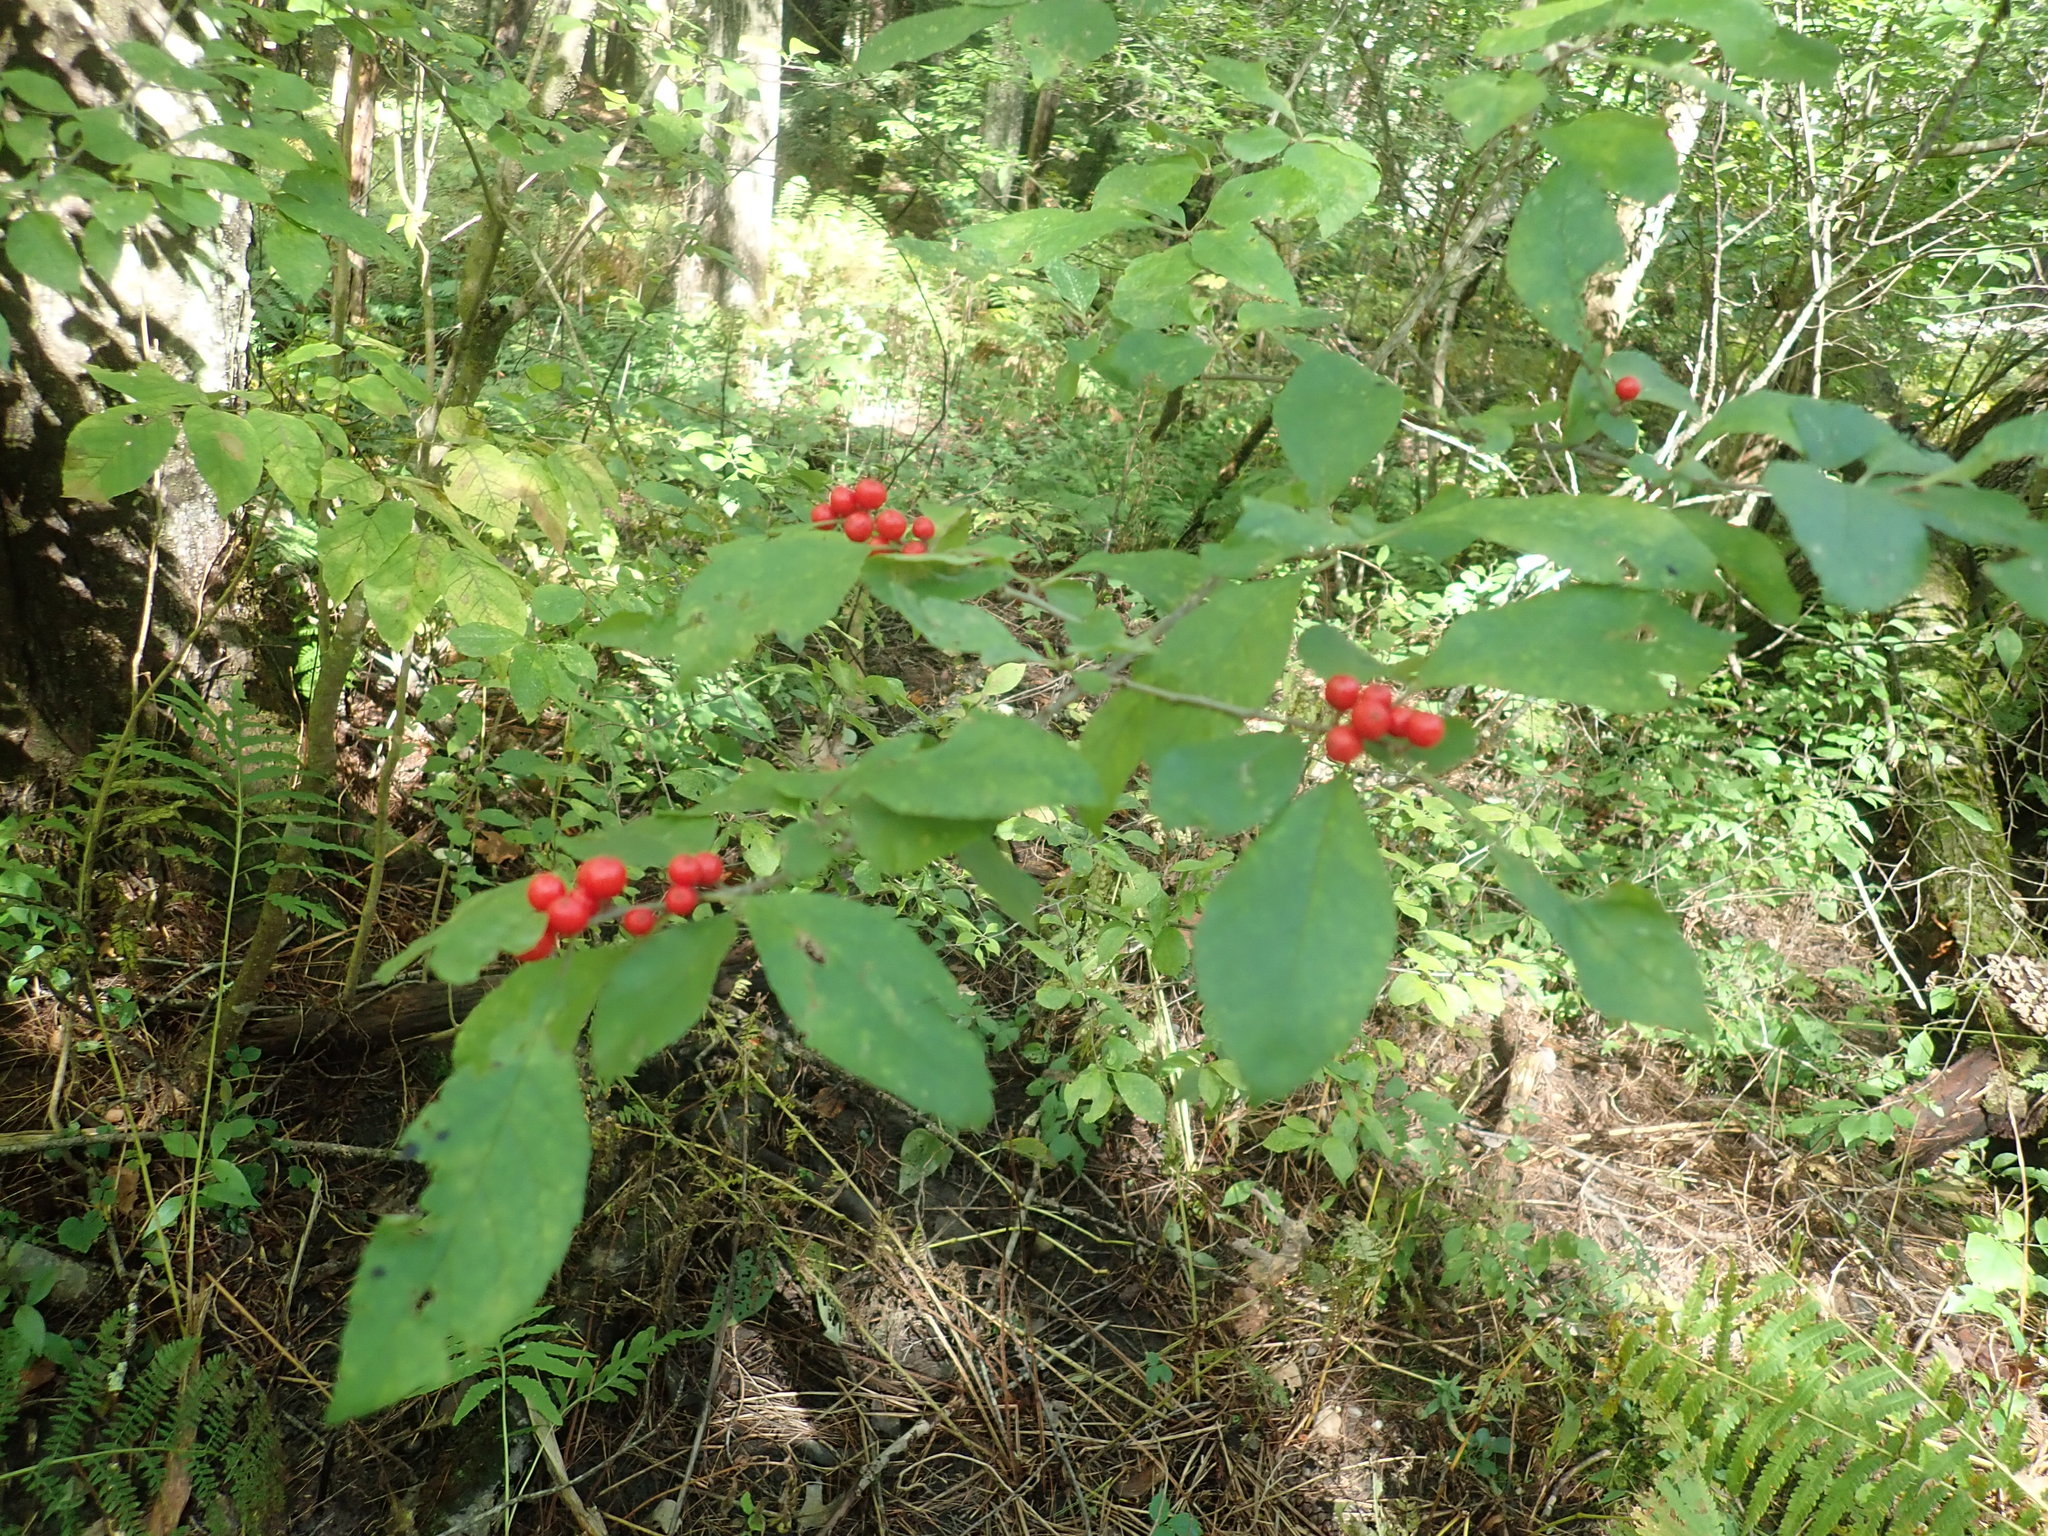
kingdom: Plantae
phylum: Tracheophyta
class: Magnoliopsida
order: Aquifoliales
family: Aquifoliaceae
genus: Ilex
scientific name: Ilex verticillata
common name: Virginia winterberry
